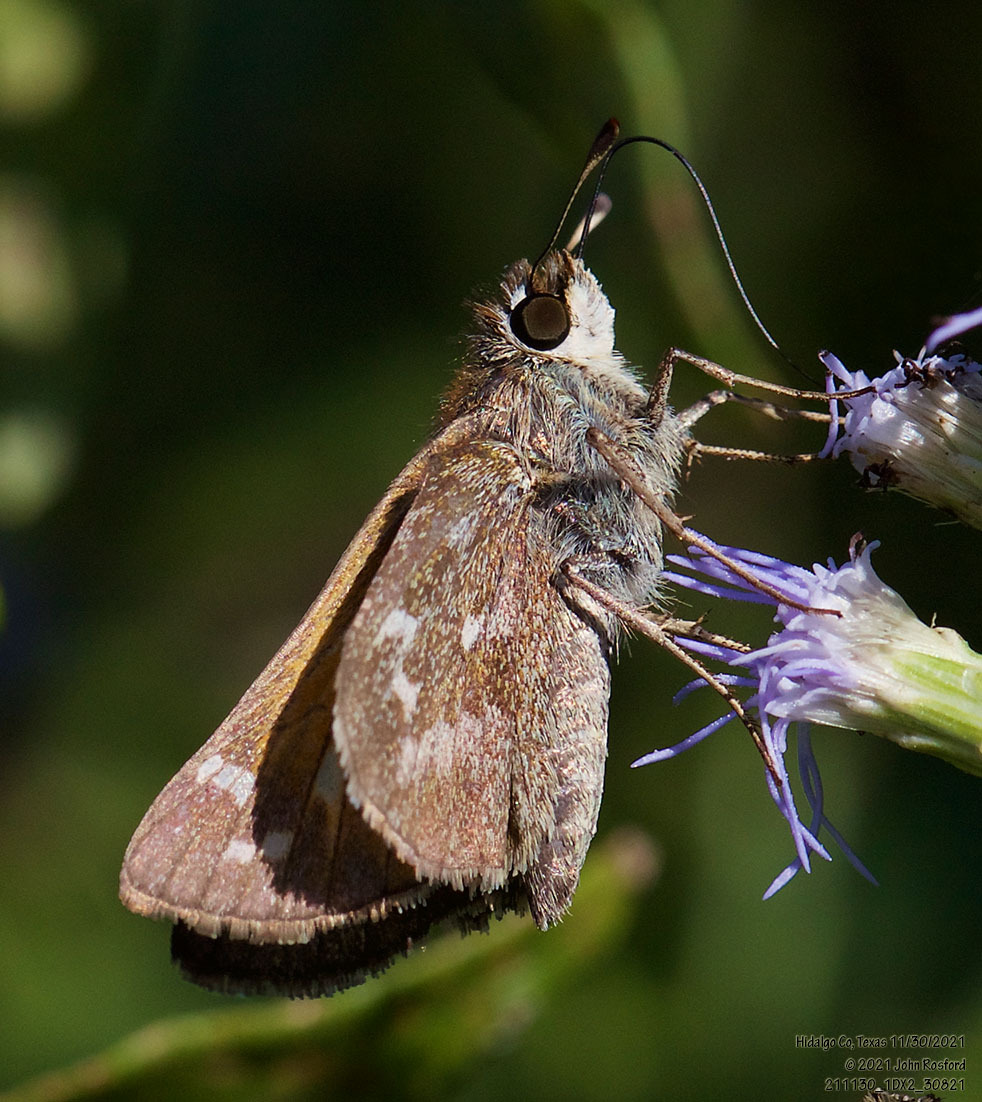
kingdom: Animalia
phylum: Arthropoda
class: Insecta
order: Lepidoptera
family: Hesperiidae
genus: Atalopedes
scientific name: Atalopedes
